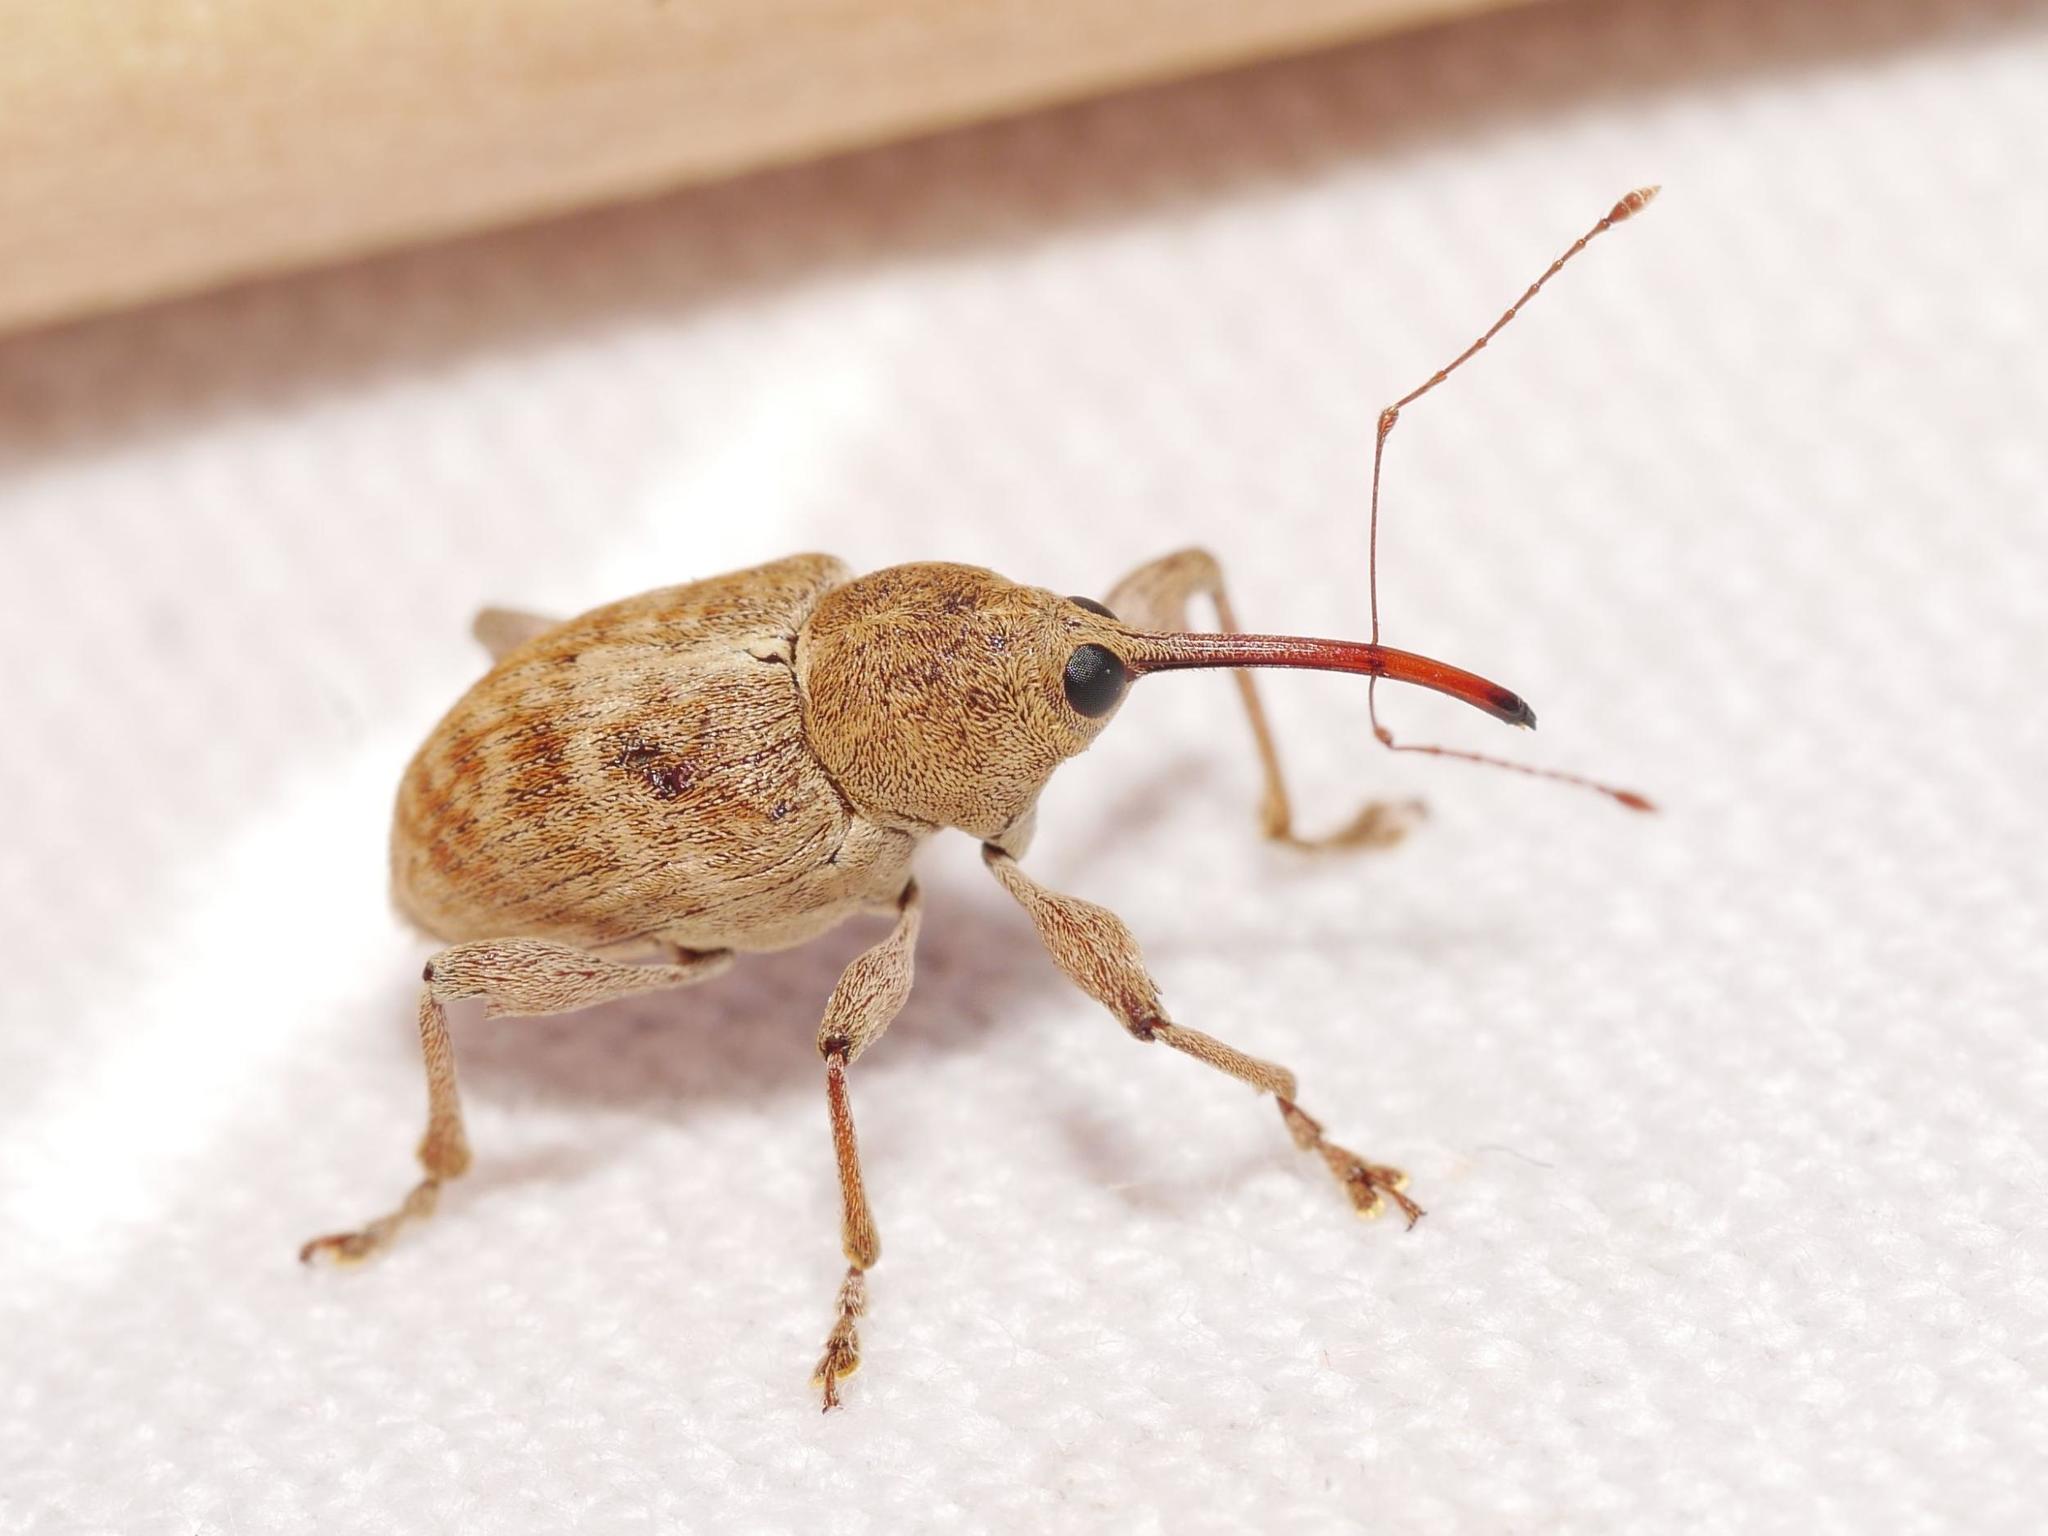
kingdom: Animalia
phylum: Arthropoda
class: Insecta
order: Coleoptera
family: Curculionidae
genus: Curculio
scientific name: Curculio elephas
